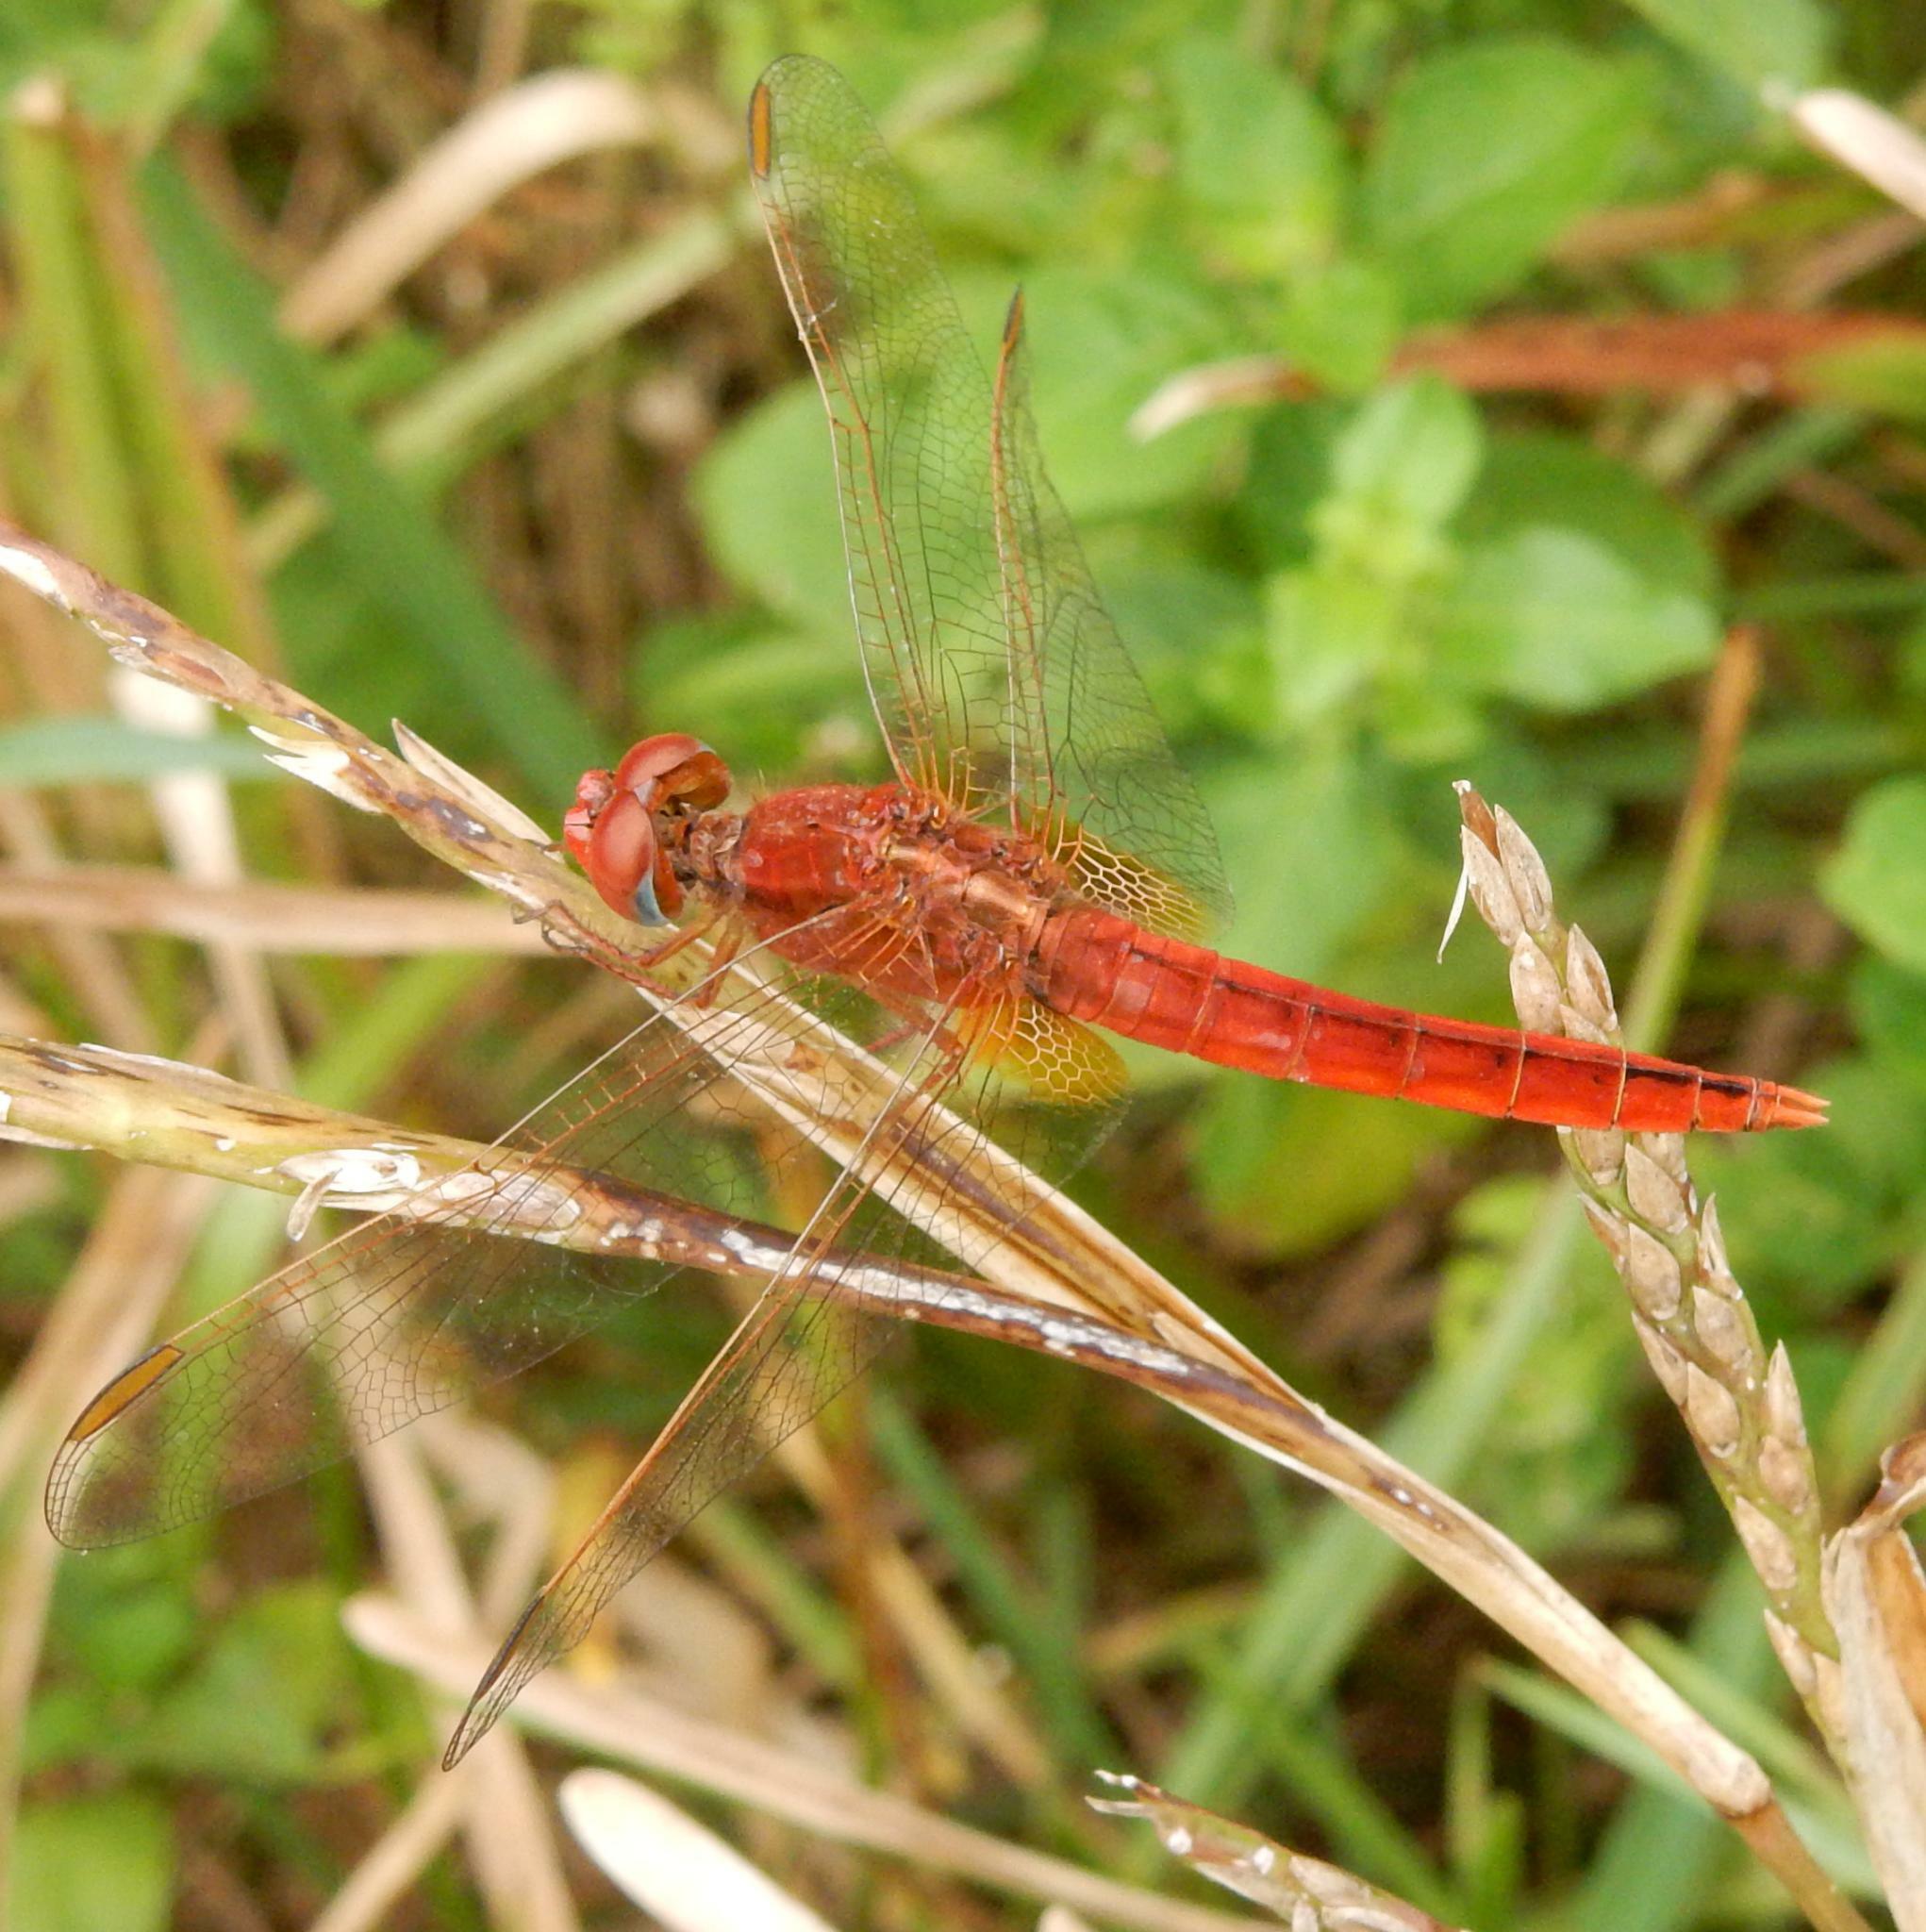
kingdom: Animalia
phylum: Arthropoda
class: Insecta
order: Odonata
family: Libellulidae
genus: Crocothemis
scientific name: Crocothemis erythraea
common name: Scarlet dragonfly
